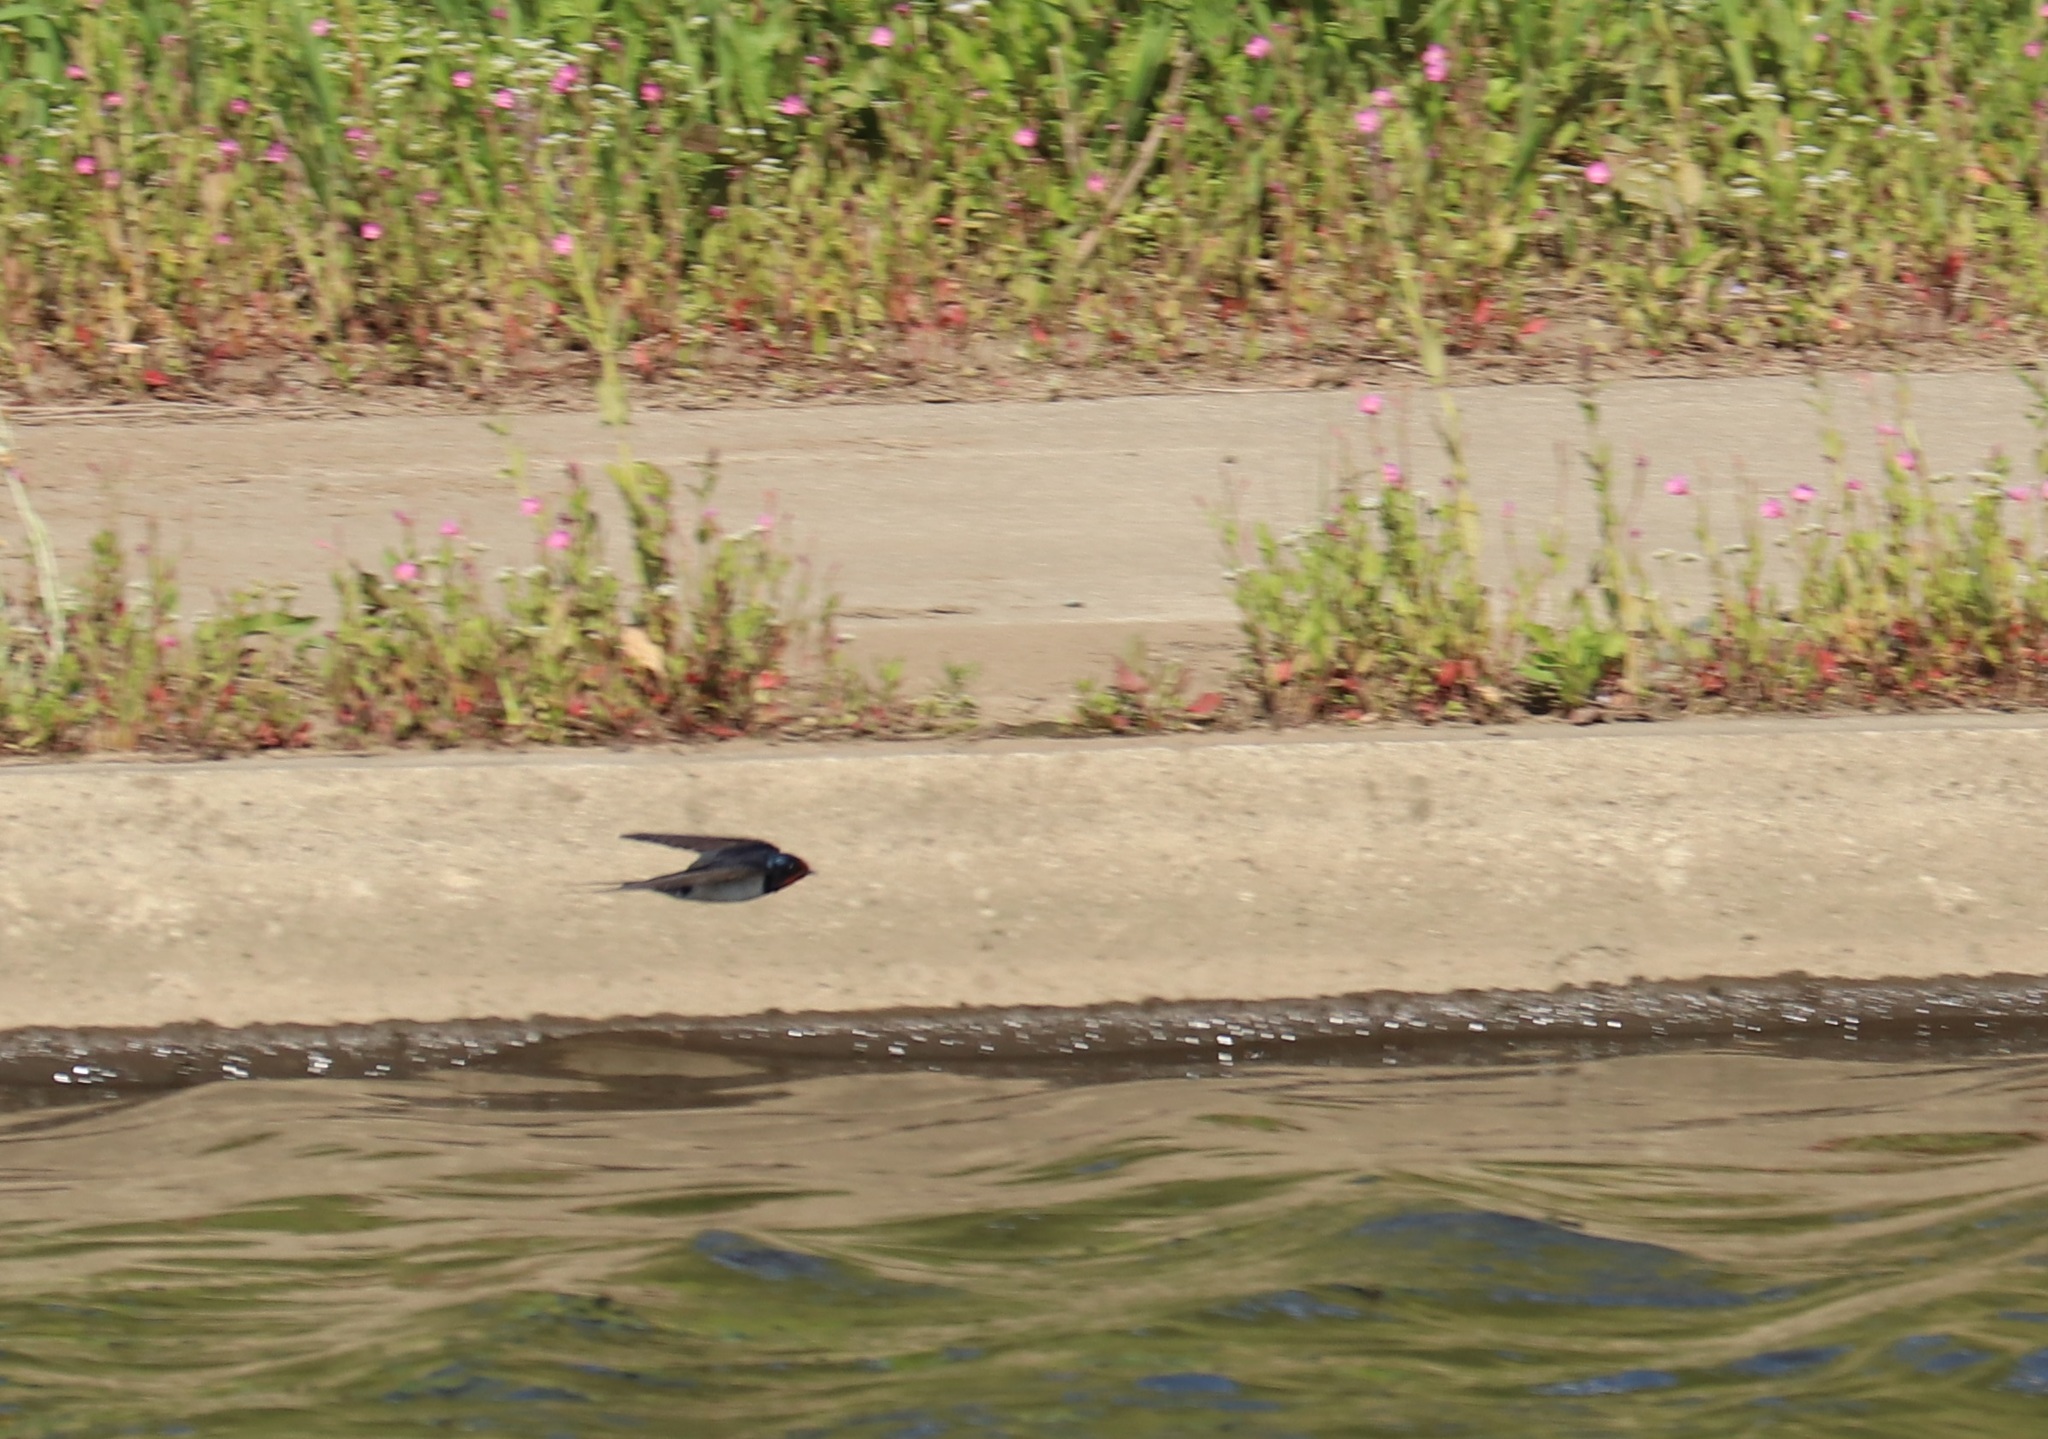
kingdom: Animalia
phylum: Chordata
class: Aves
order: Passeriformes
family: Hirundinidae
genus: Hirundo
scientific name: Hirundo rustica
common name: Barn swallow
